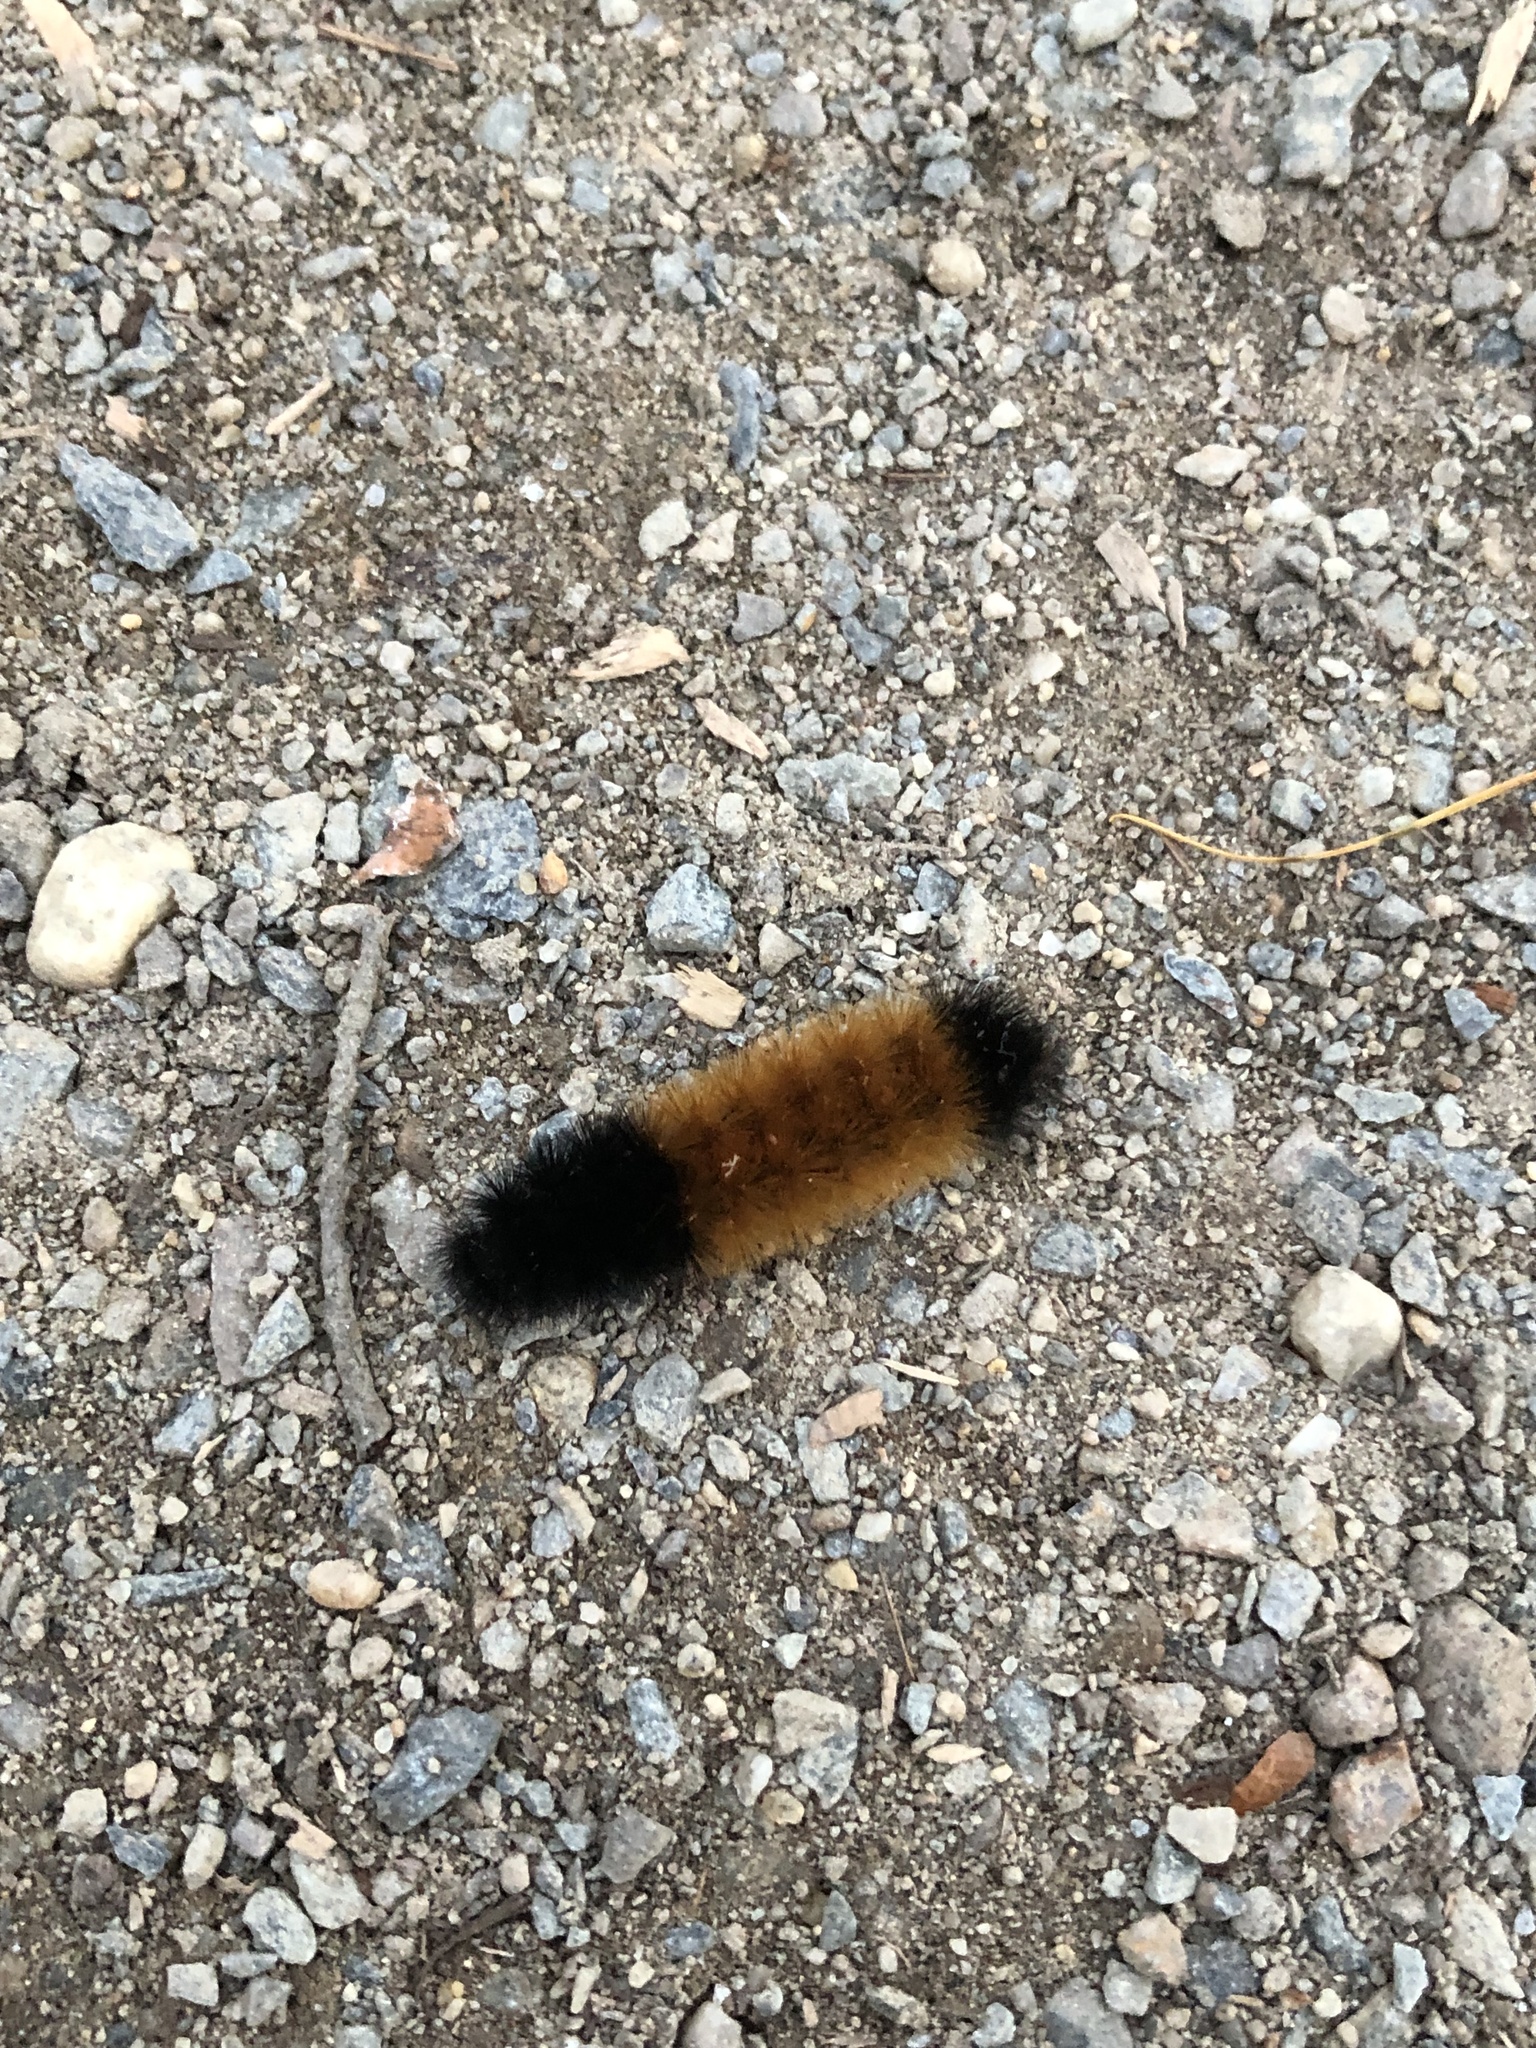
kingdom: Animalia
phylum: Arthropoda
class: Insecta
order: Lepidoptera
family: Erebidae
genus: Pyrrharctia
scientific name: Pyrrharctia isabella
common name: Isabella tiger moth
